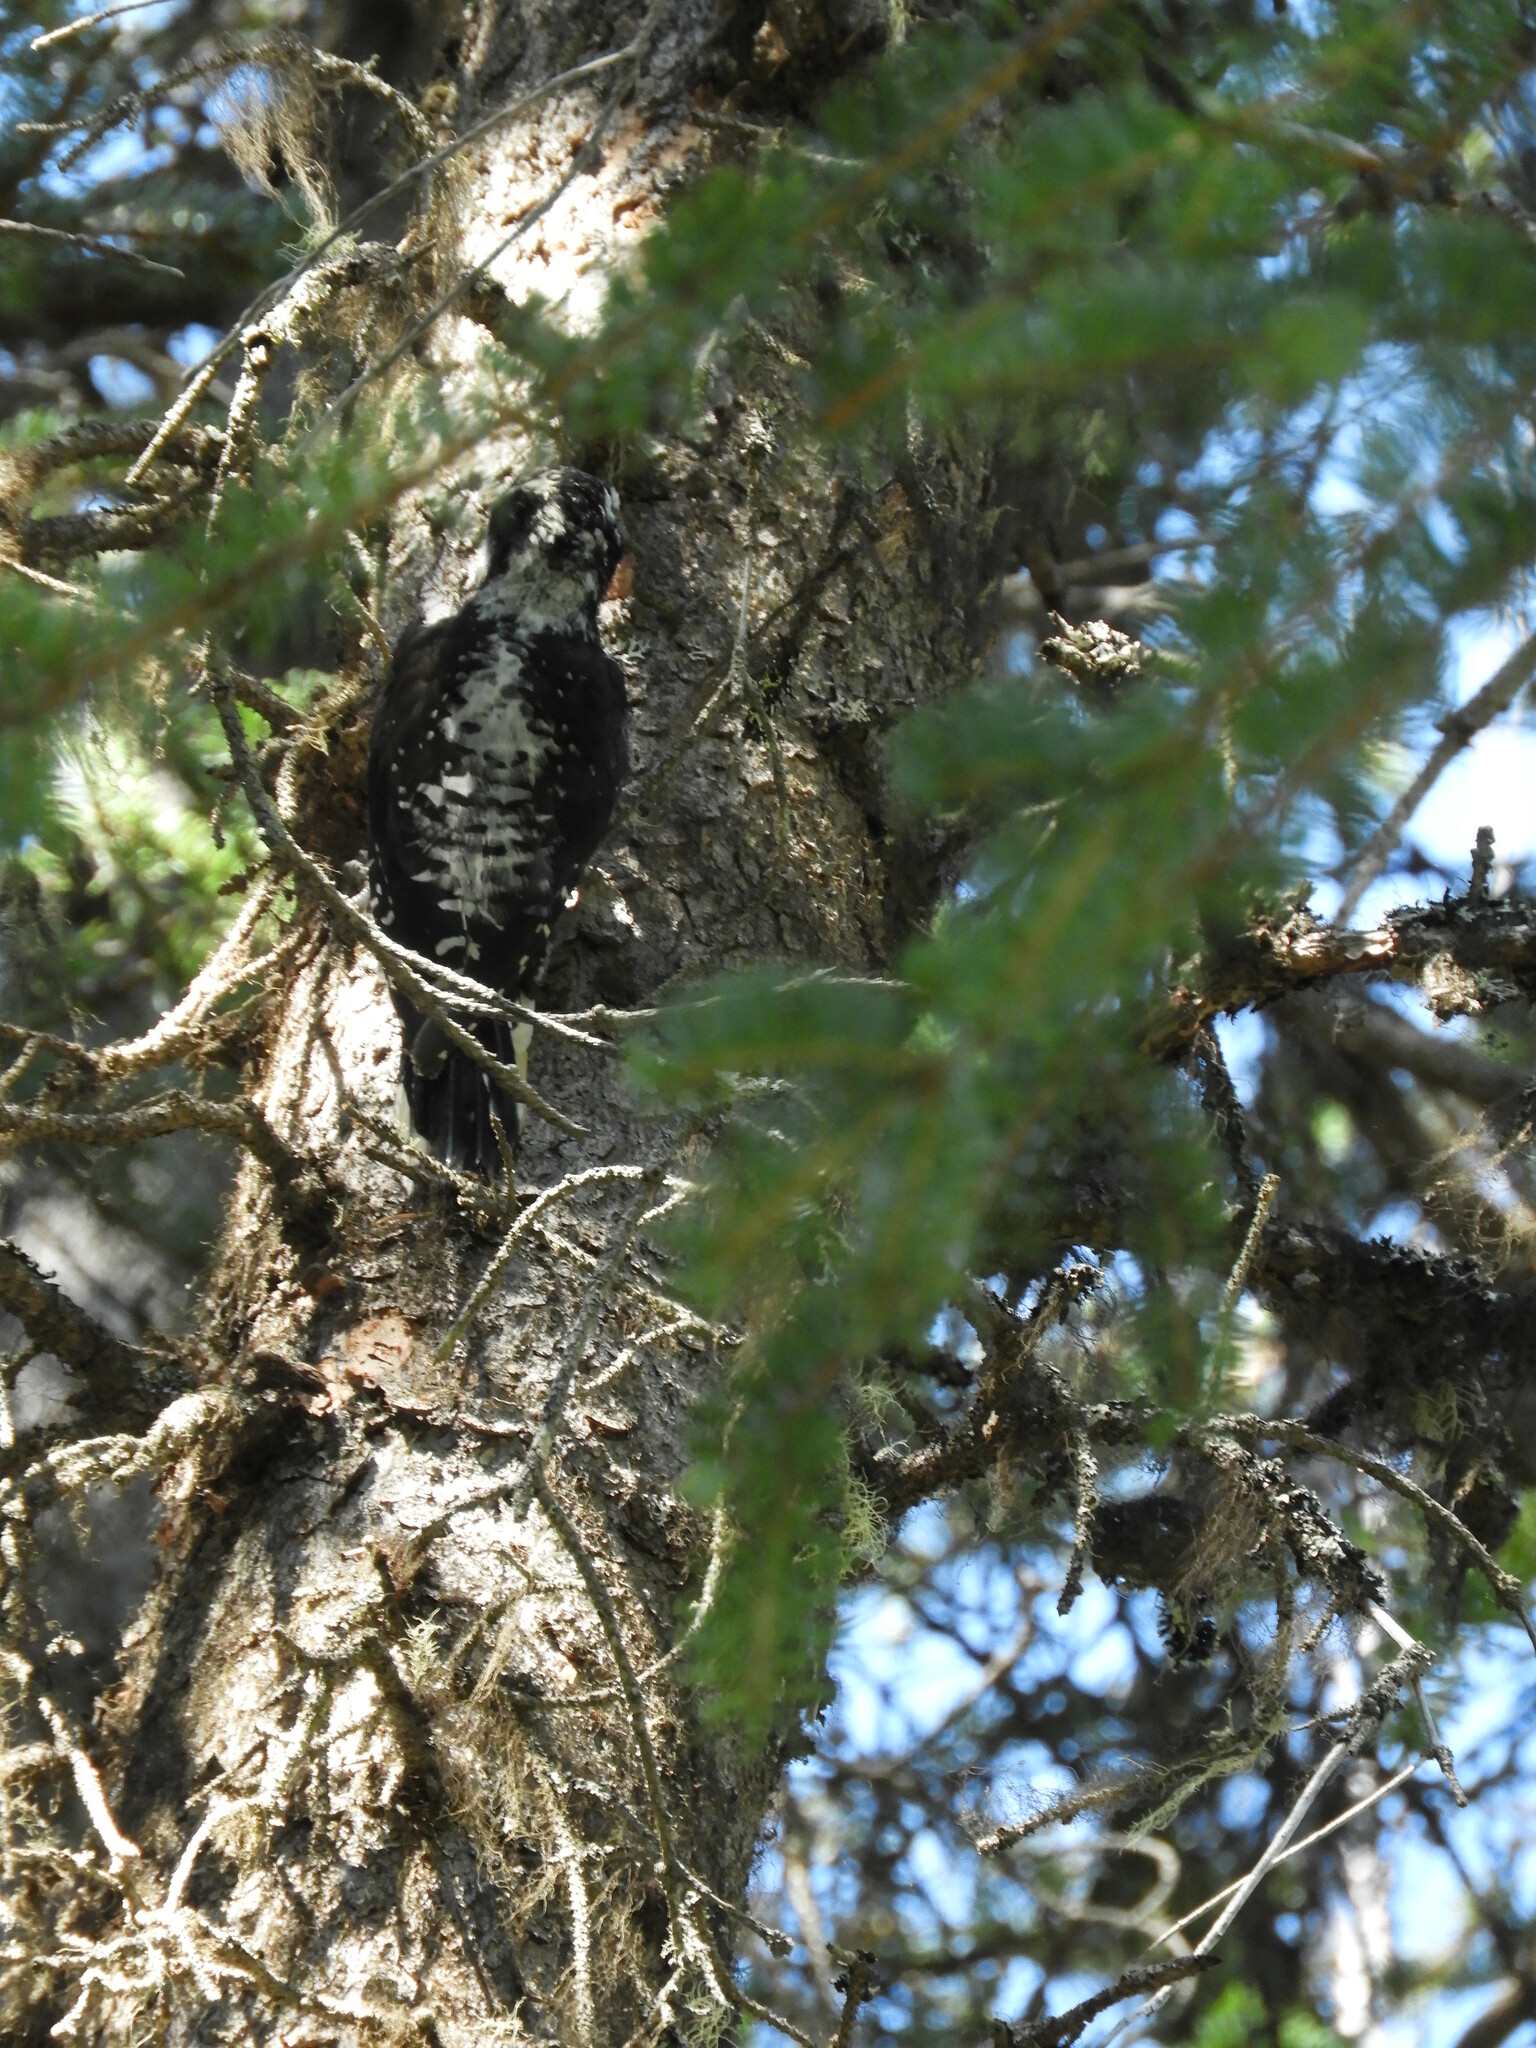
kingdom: Animalia
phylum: Chordata
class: Aves
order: Piciformes
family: Picidae
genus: Picoides
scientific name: Picoides dorsalis
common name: American three-toed woodpecker
